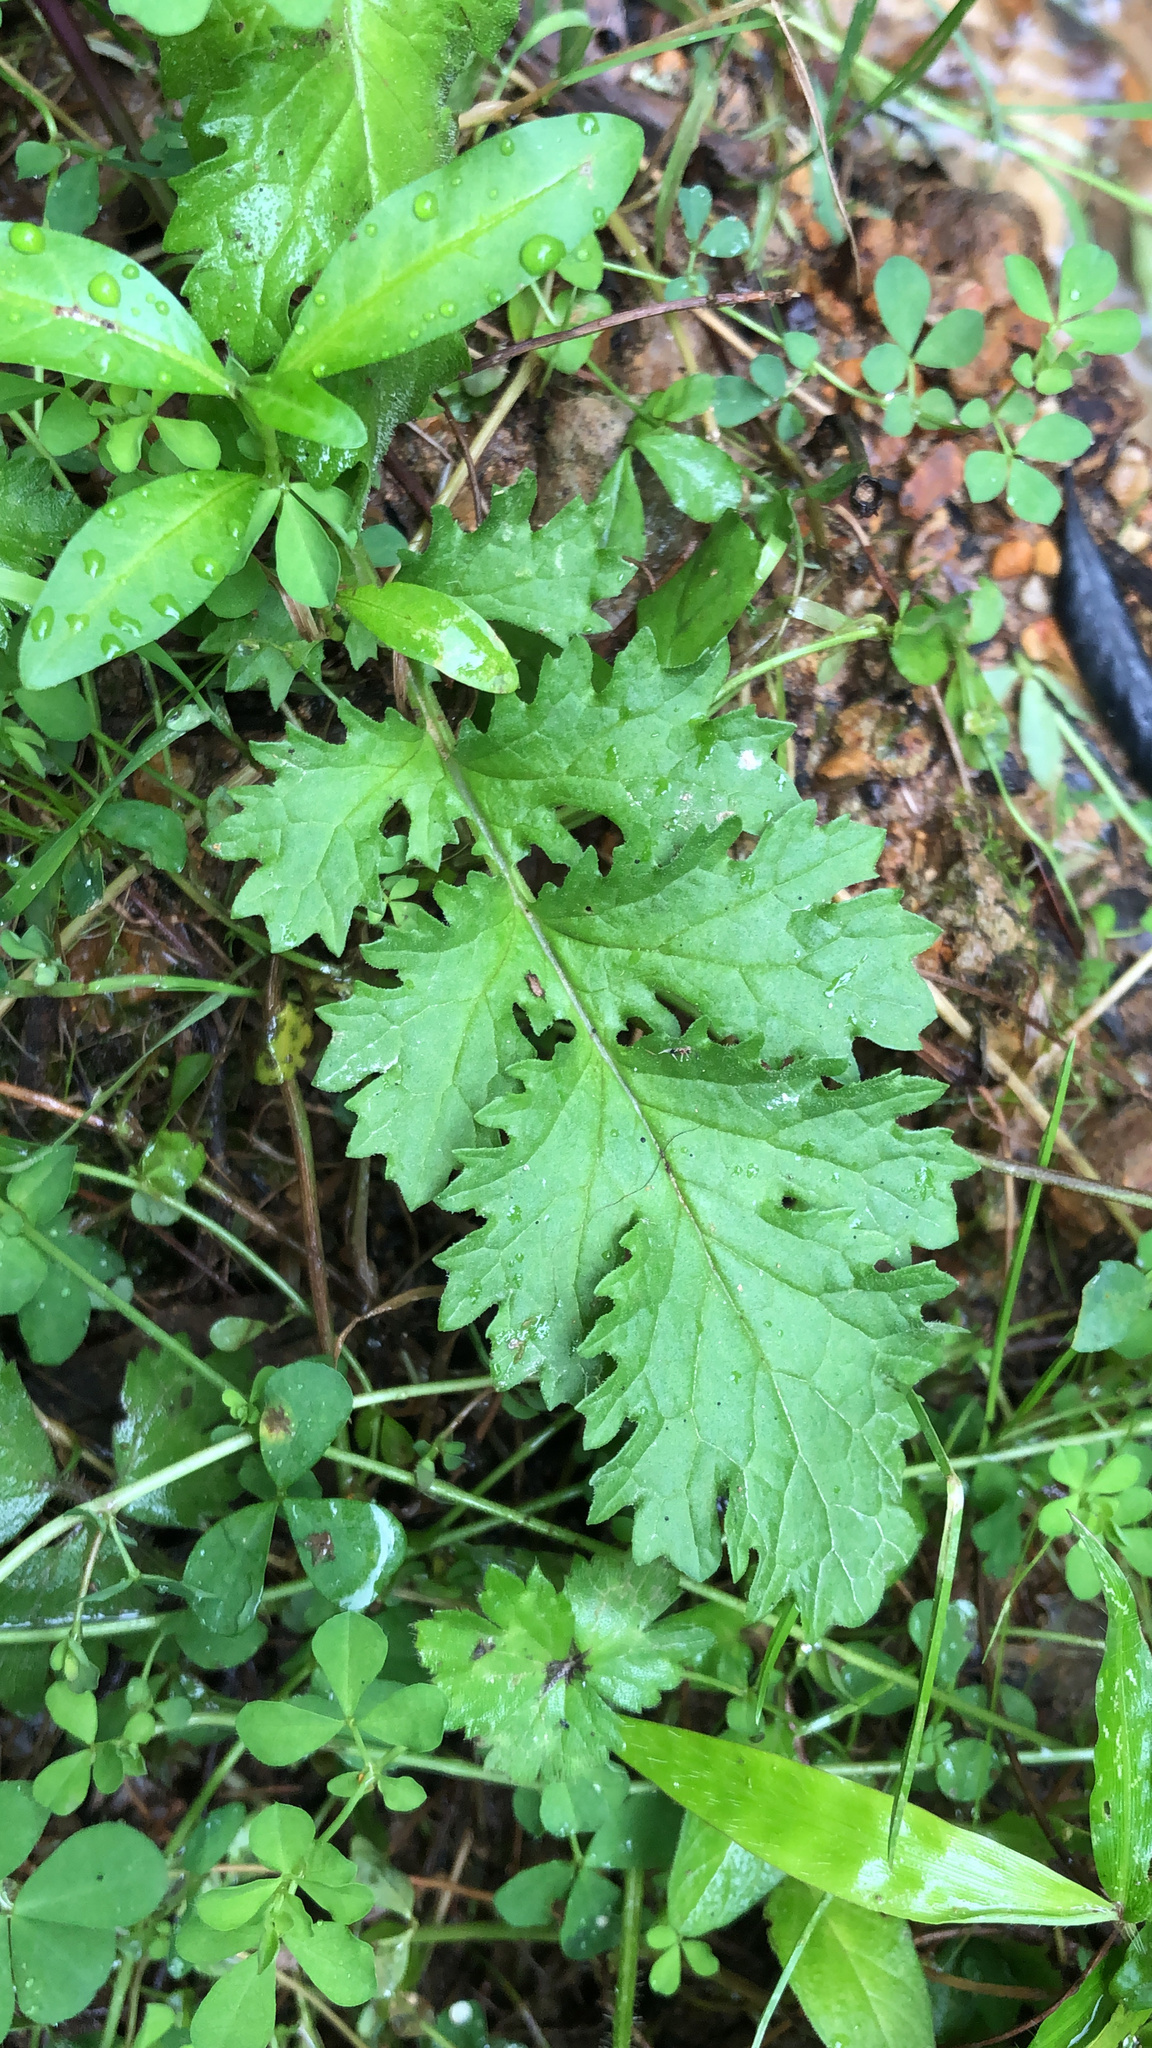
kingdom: Plantae
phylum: Tracheophyta
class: Magnoliopsida
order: Asterales
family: Asteraceae
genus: Jacobaea
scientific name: Jacobaea vulgaris
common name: Stinking willie
